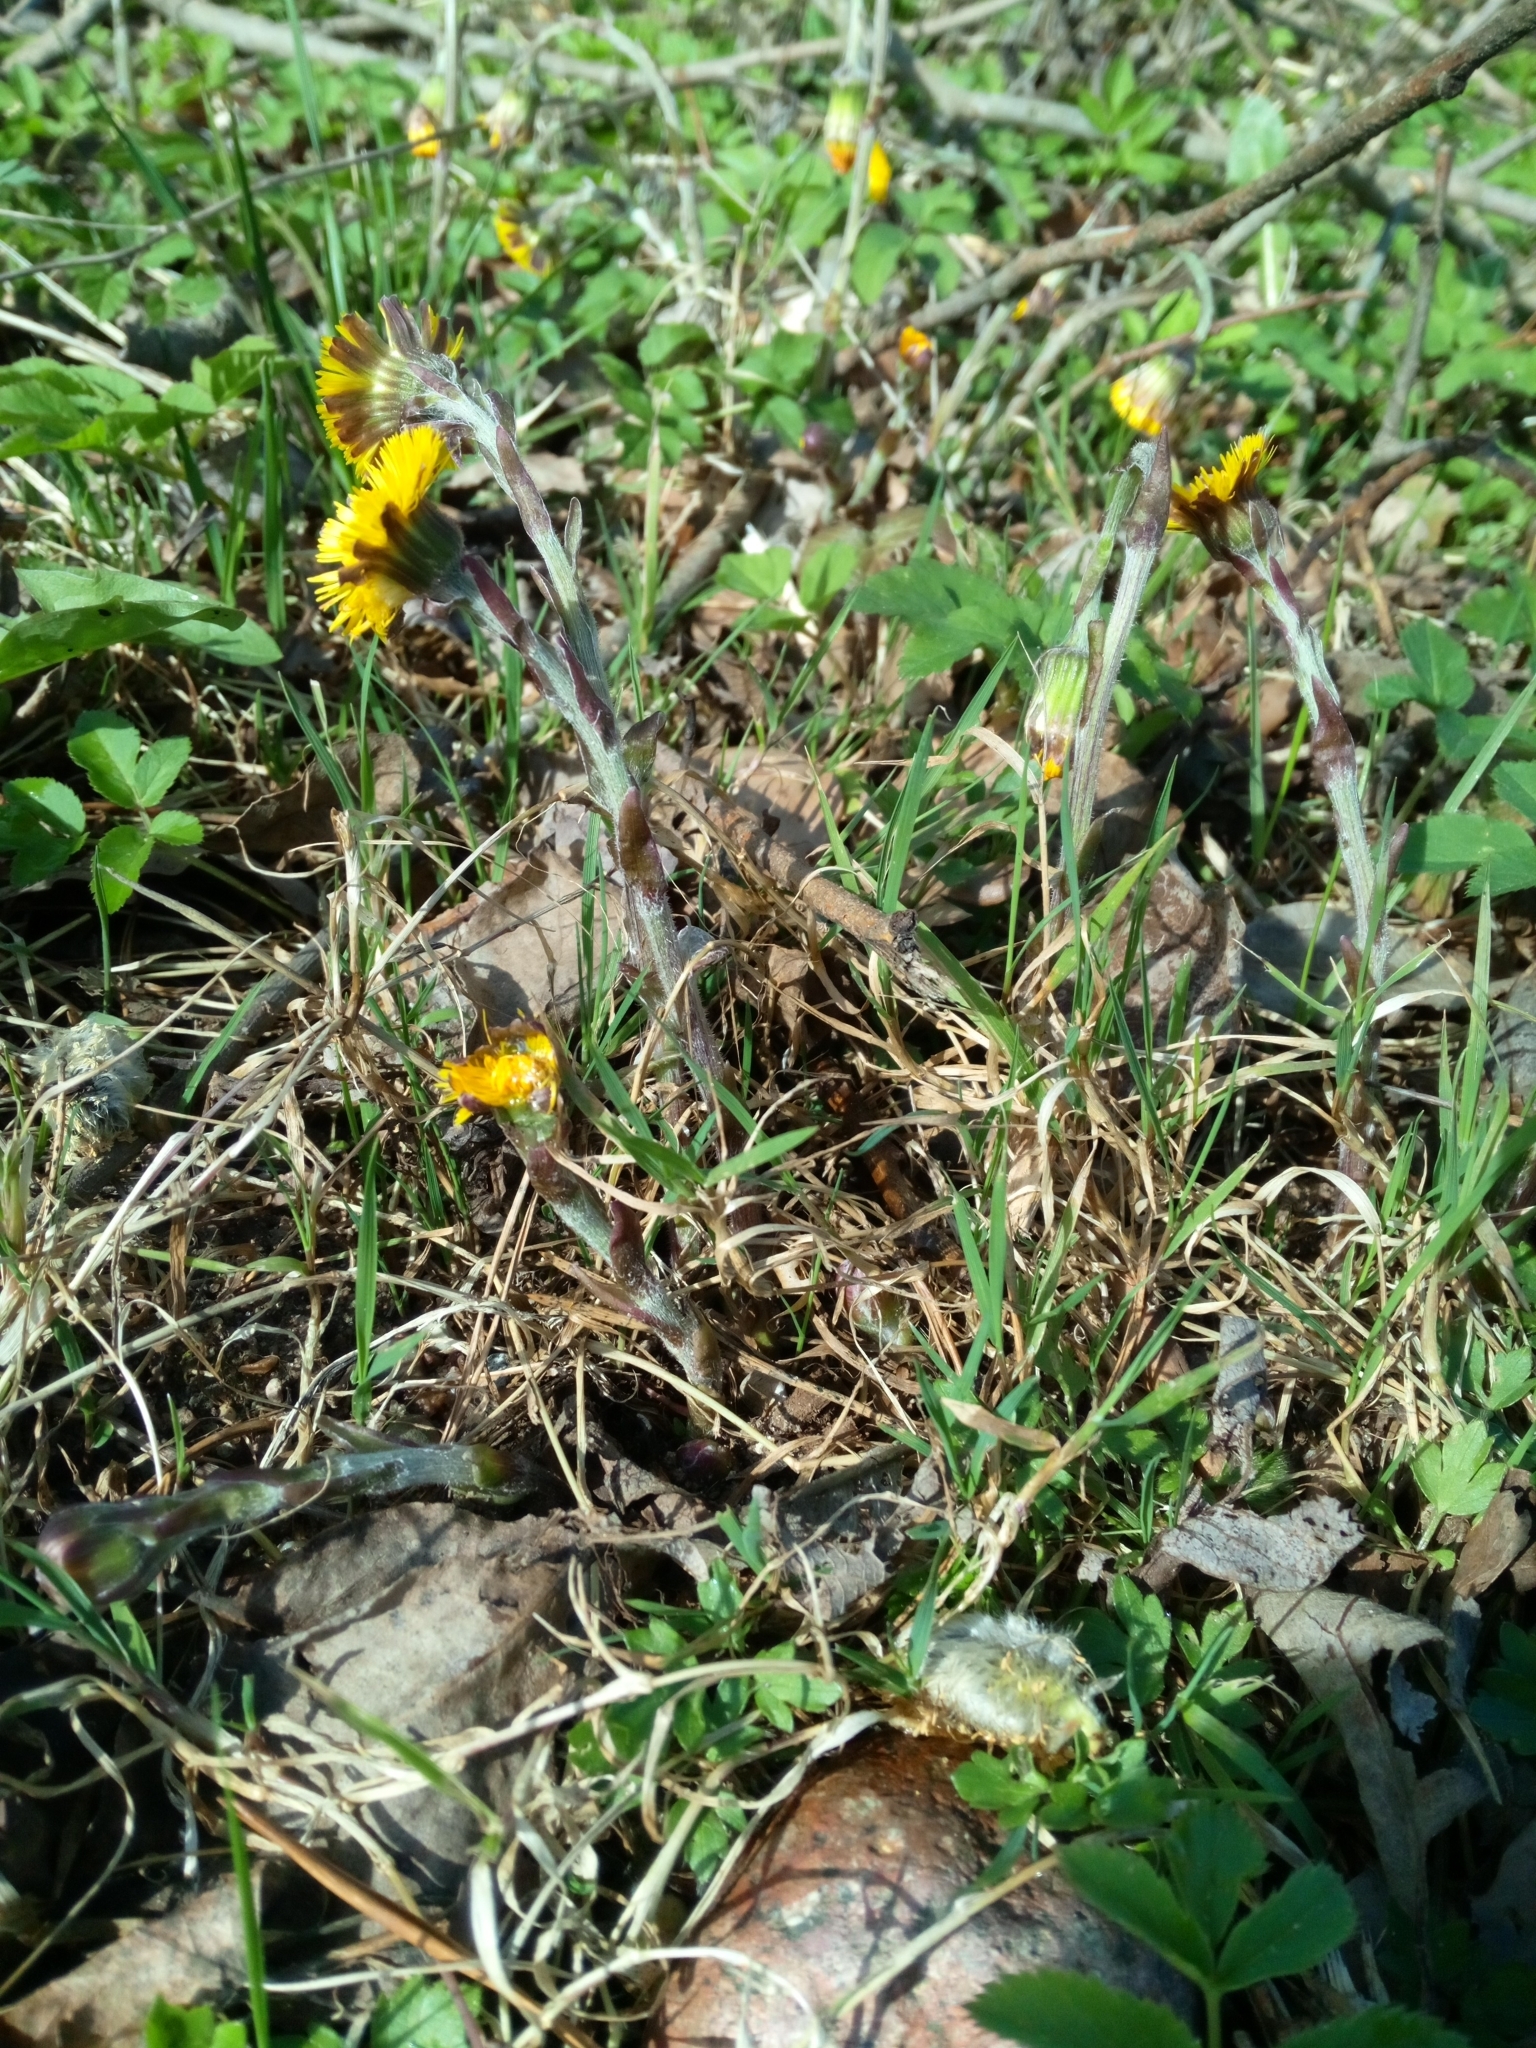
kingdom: Plantae
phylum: Tracheophyta
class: Magnoliopsida
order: Asterales
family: Asteraceae
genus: Tussilago
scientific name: Tussilago farfara
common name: Coltsfoot
